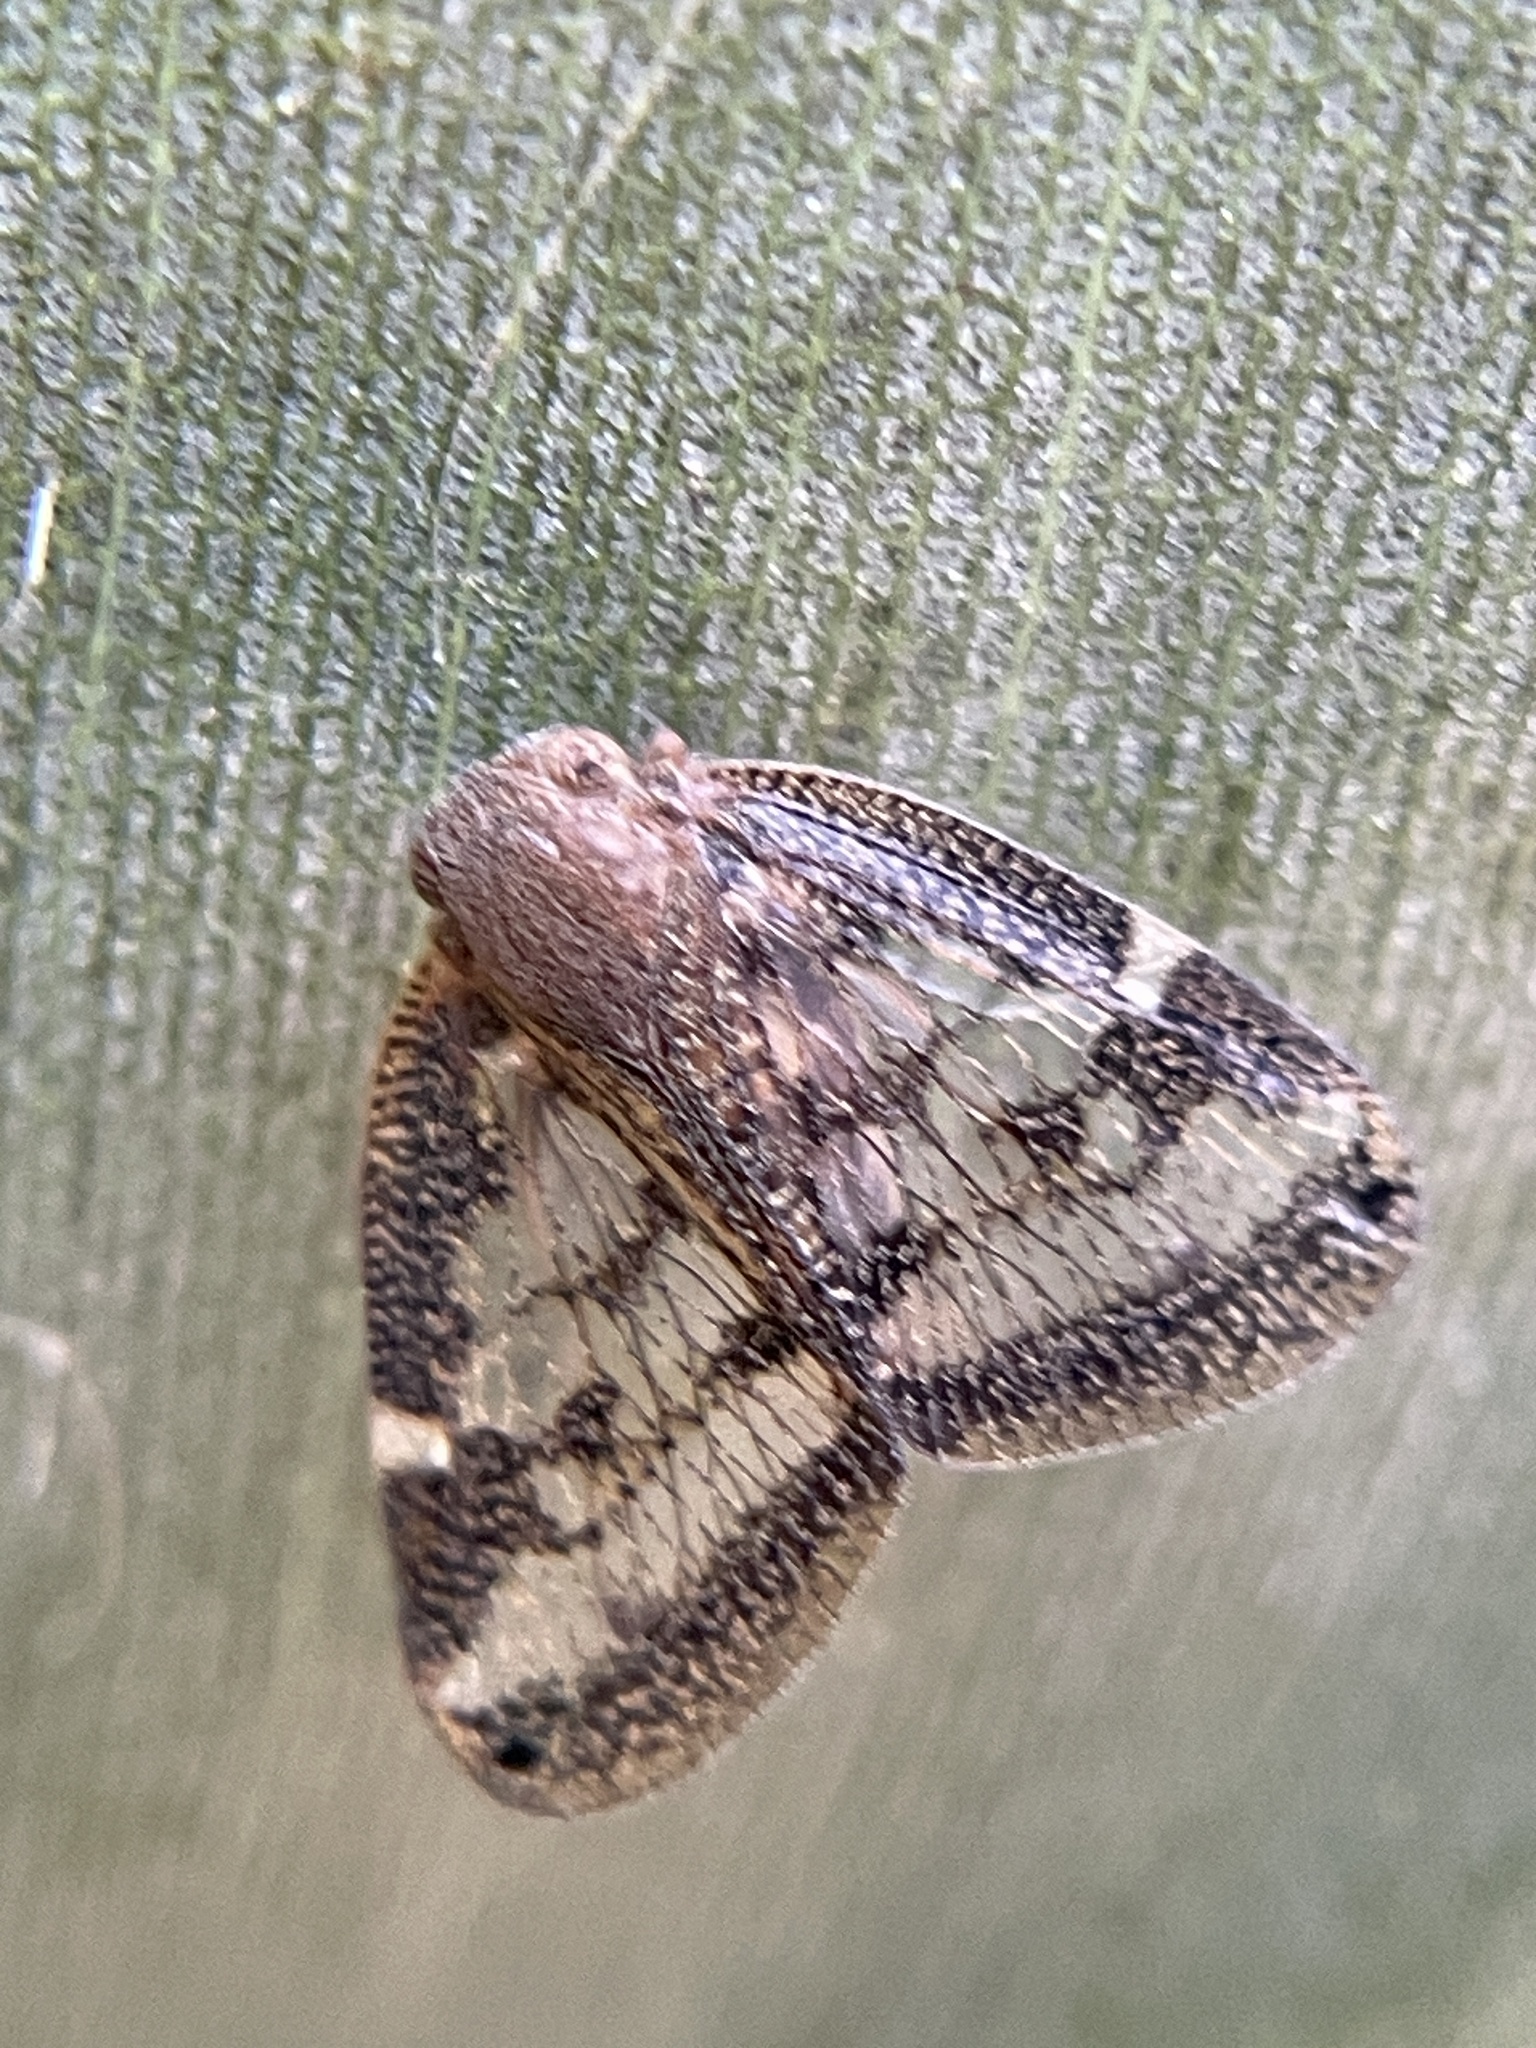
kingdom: Animalia
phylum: Arthropoda
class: Insecta
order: Hemiptera
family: Ricaniidae
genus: Scolypopa
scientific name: Scolypopa australis
